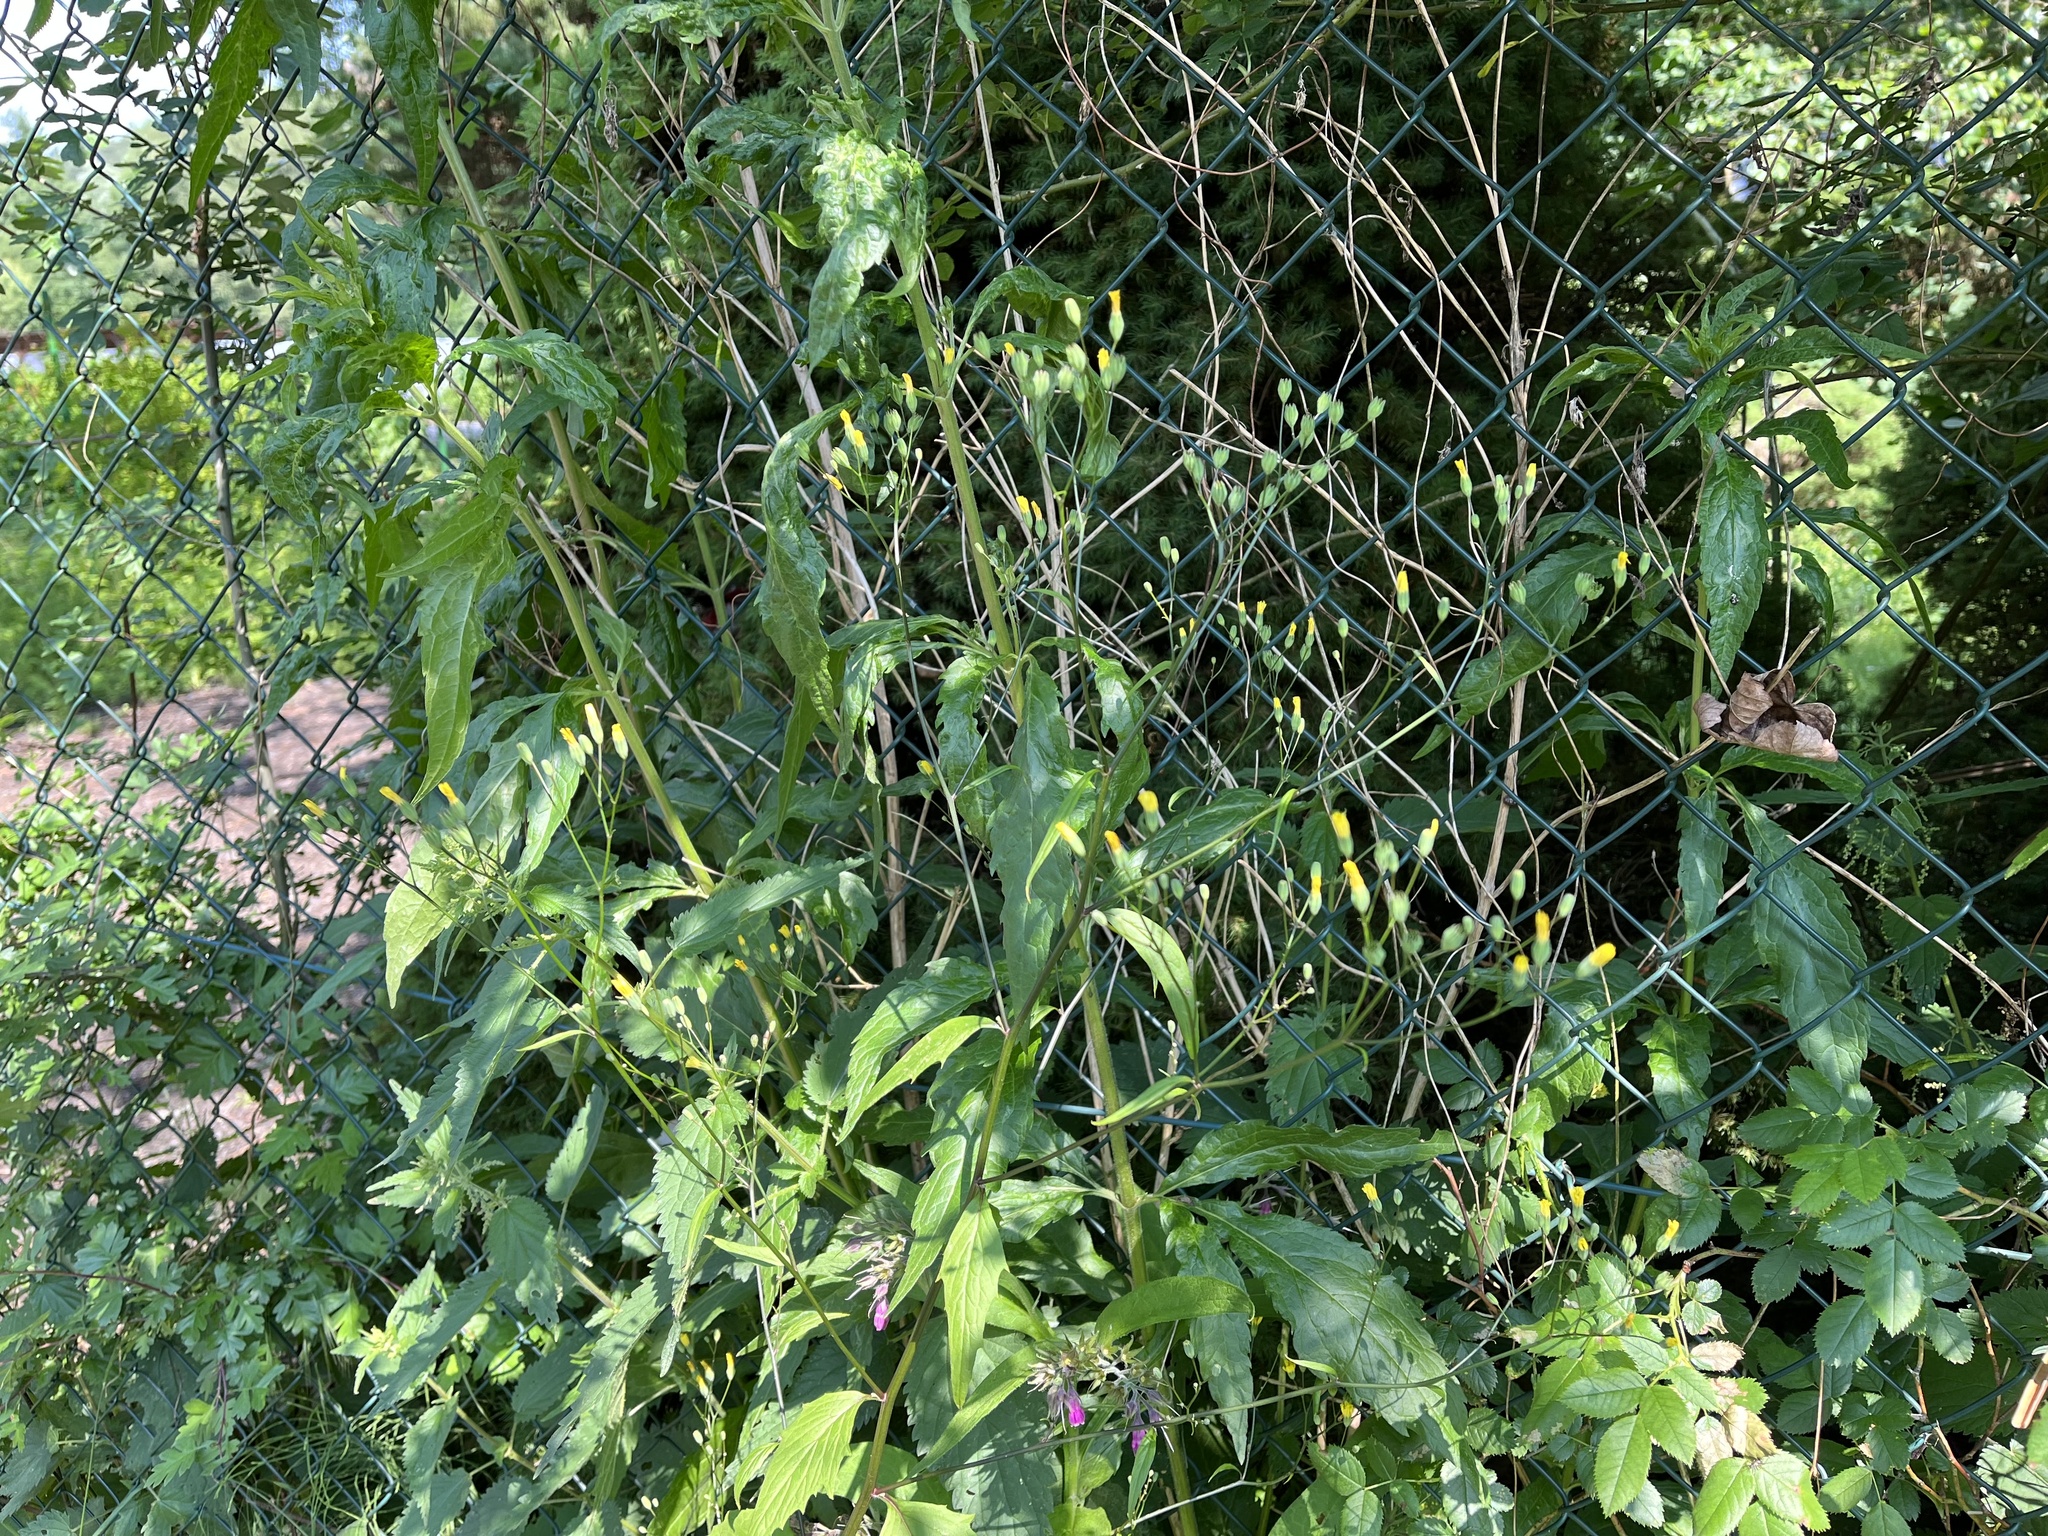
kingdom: Plantae
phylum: Tracheophyta
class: Magnoliopsida
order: Asterales
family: Asteraceae
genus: Lapsana
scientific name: Lapsana communis
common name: Nipplewort
